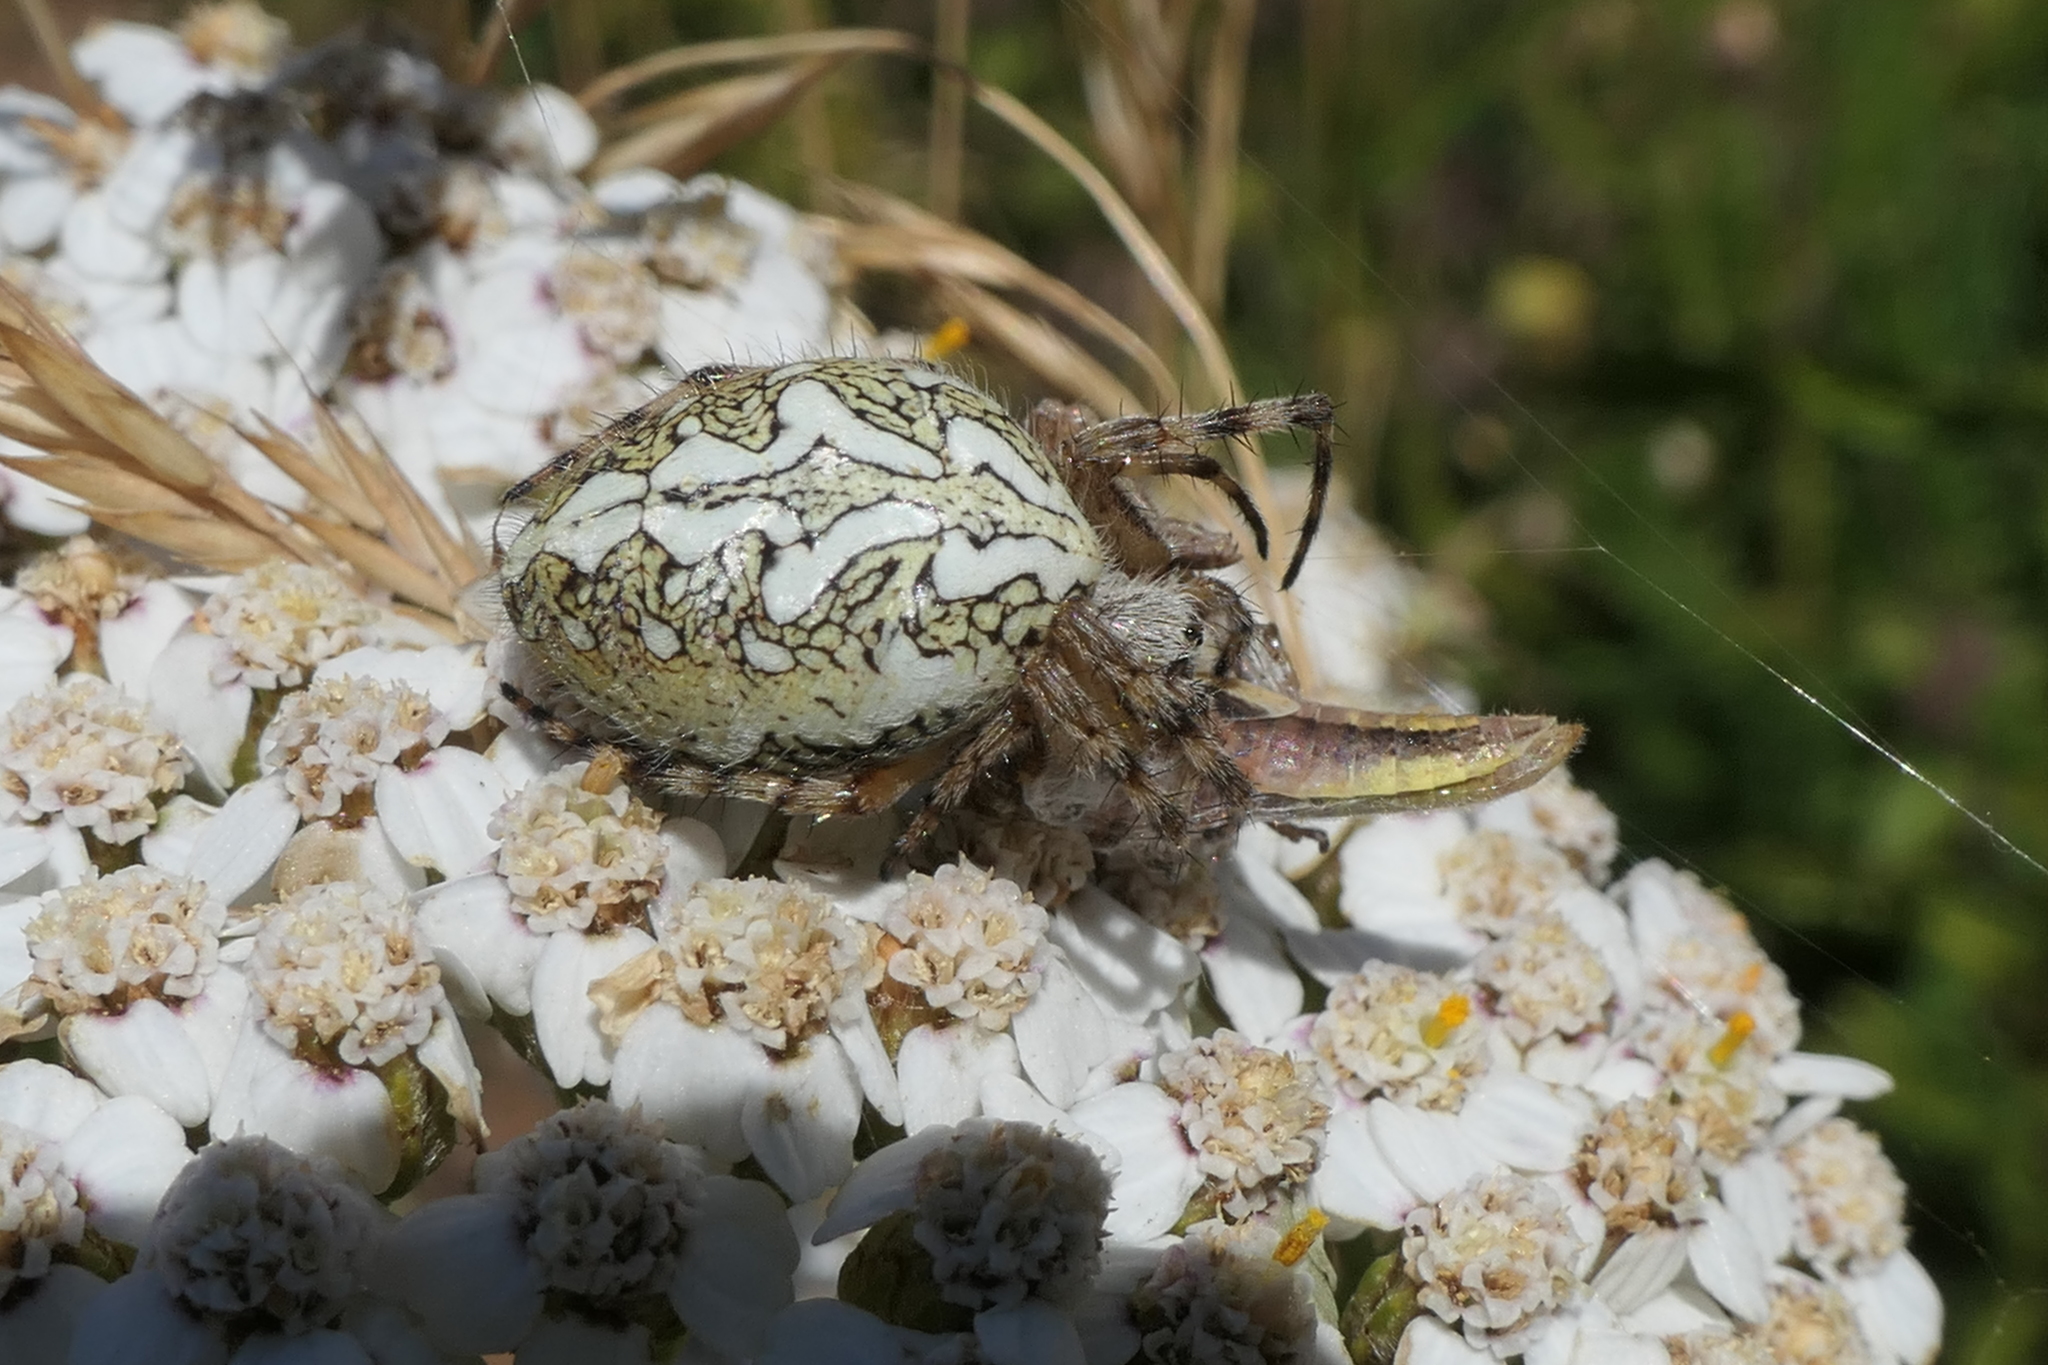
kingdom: Animalia
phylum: Arthropoda
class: Arachnida
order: Araneae
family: Araneidae
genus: Aculepeira
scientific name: Aculepeira ceropegia
